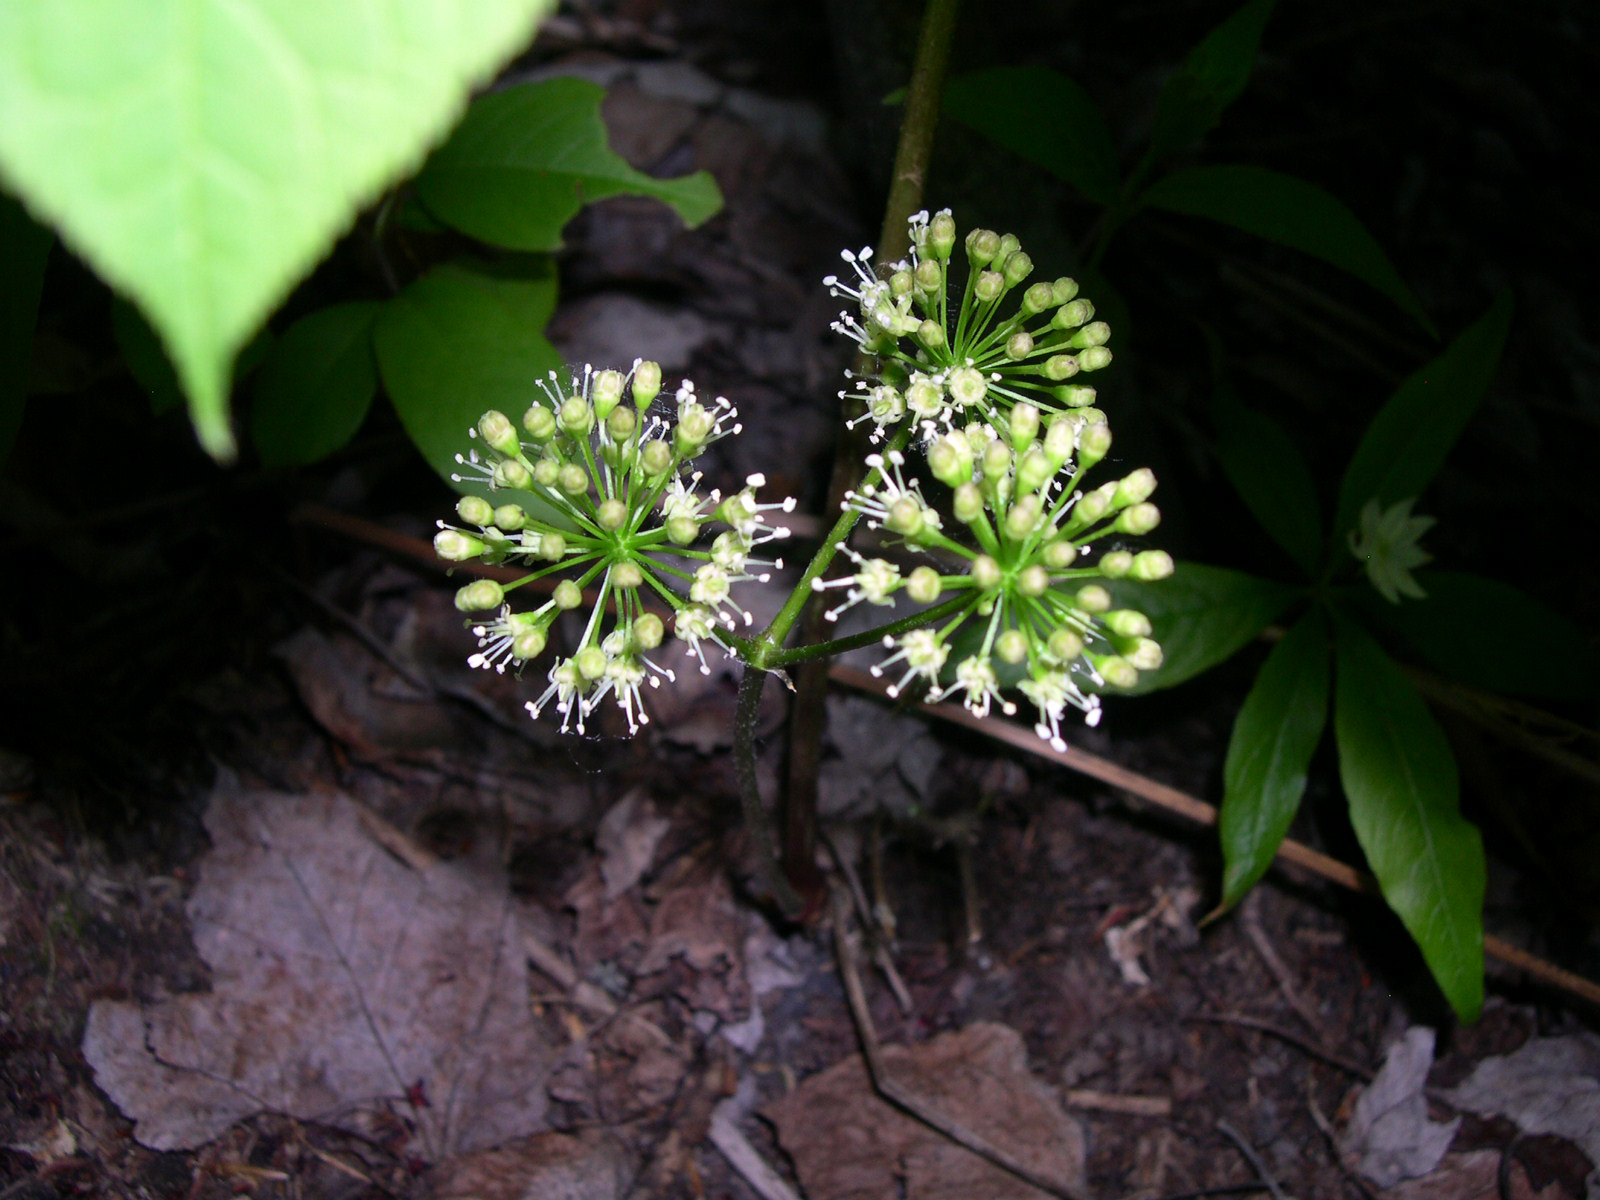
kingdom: Plantae
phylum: Tracheophyta
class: Magnoliopsida
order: Apiales
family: Araliaceae
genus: Aralia
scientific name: Aralia nudicaulis
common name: Wild sarsaparilla
